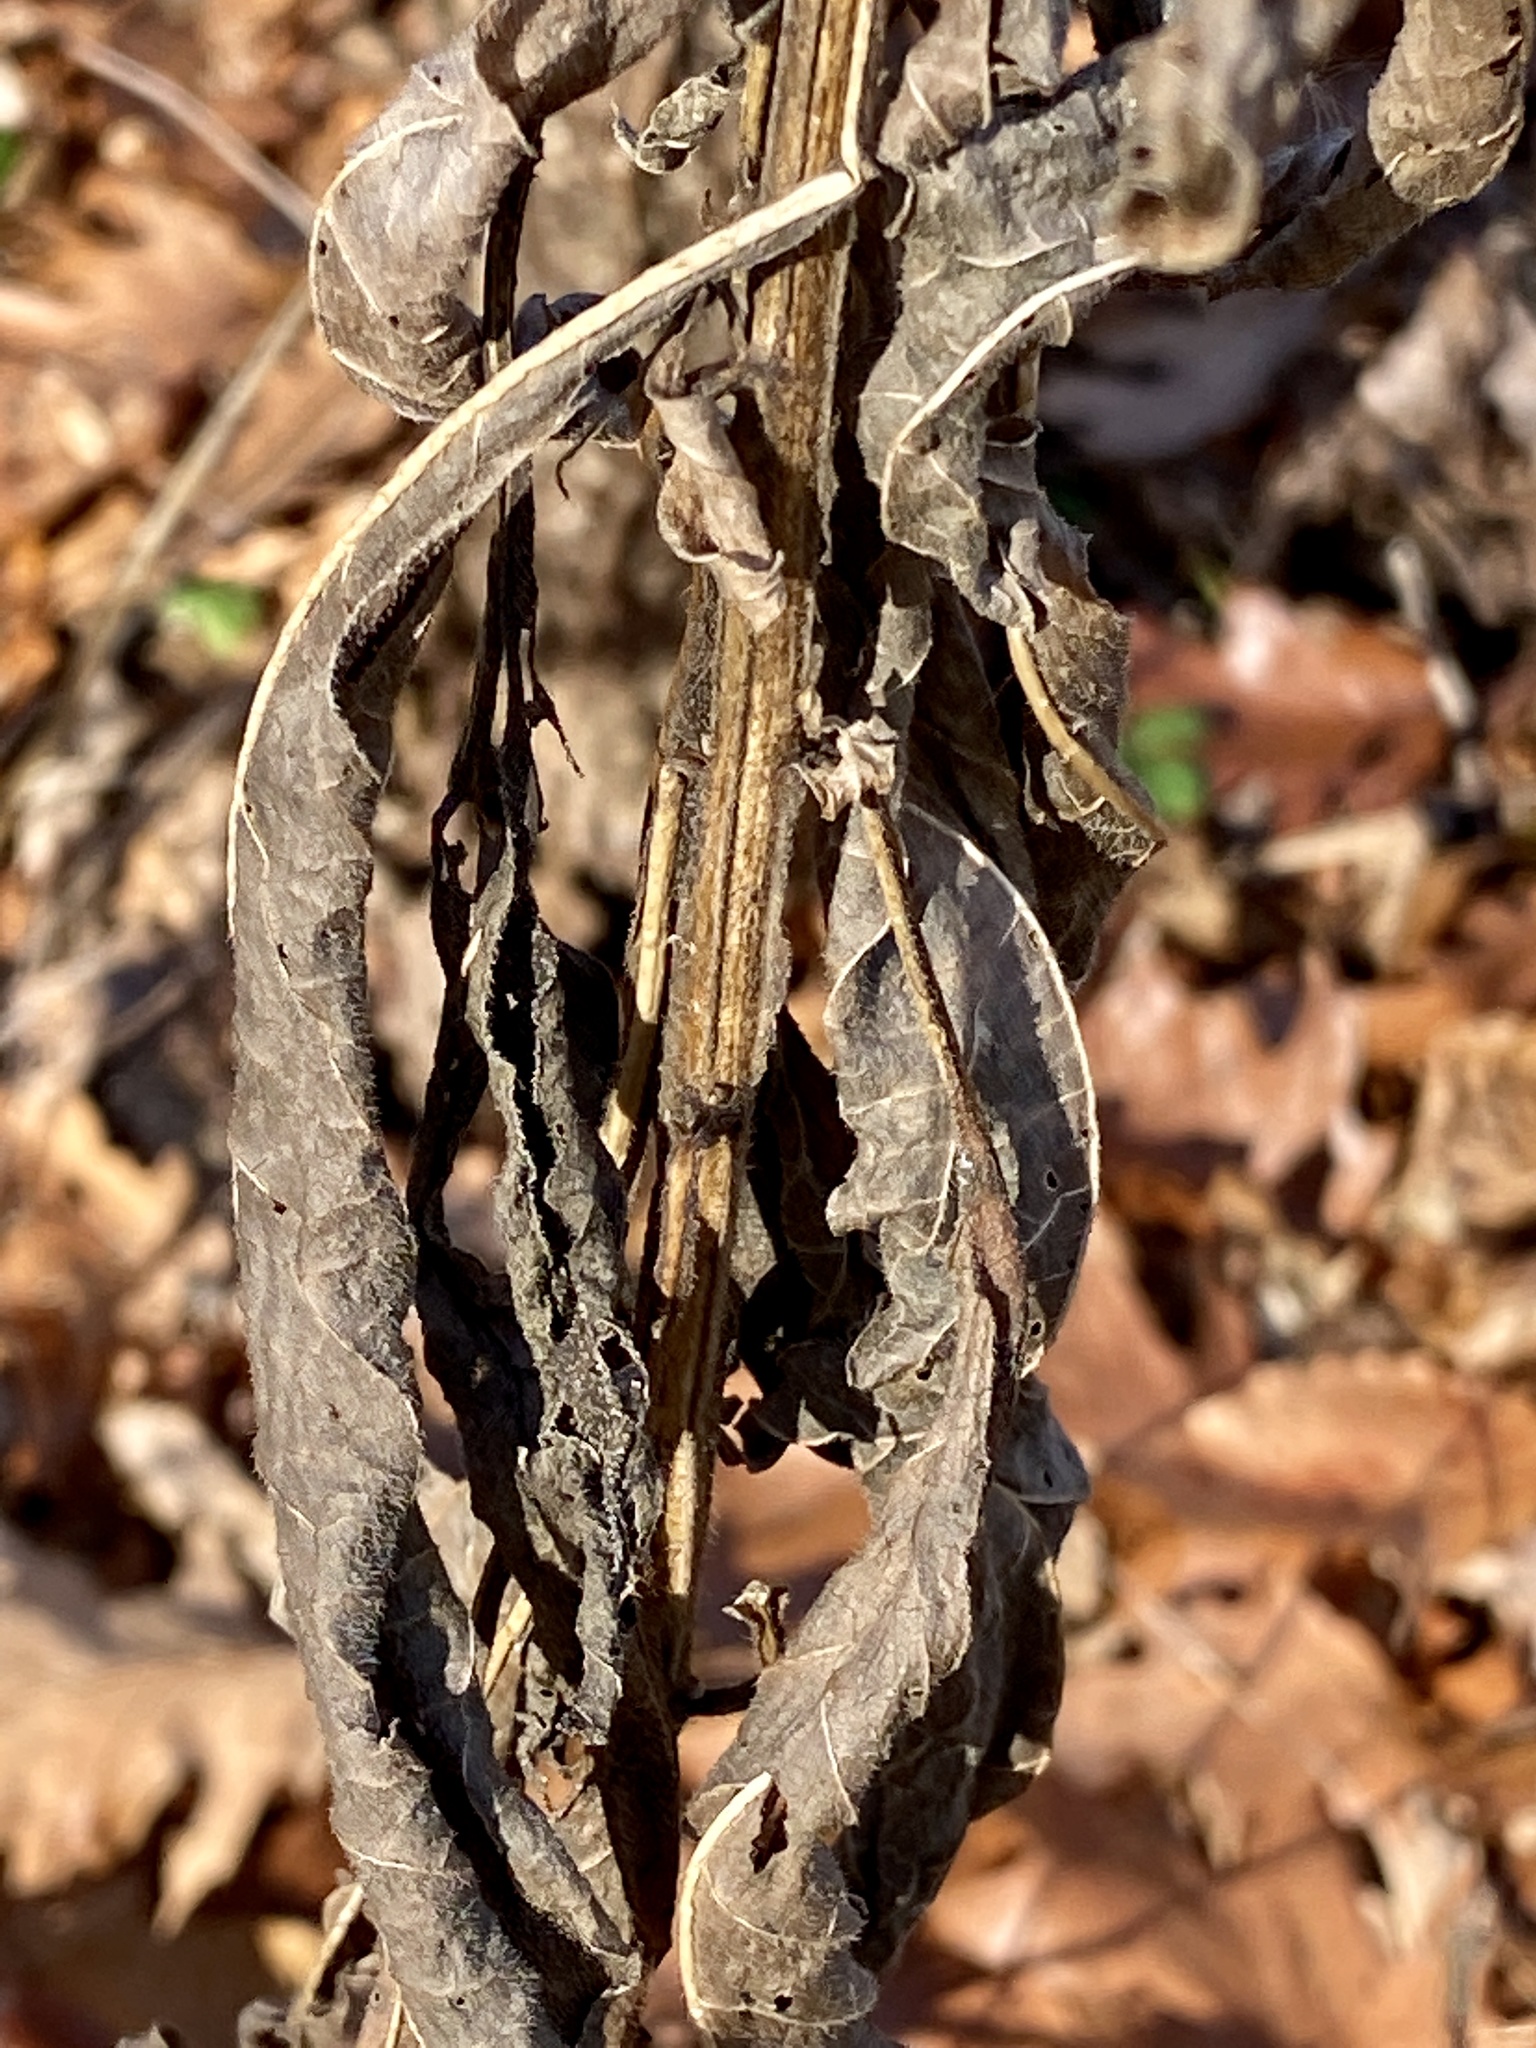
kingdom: Plantae
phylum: Tracheophyta
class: Magnoliopsida
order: Asterales
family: Asteraceae
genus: Verbesina
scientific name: Verbesina alternifolia
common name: Wingstem
